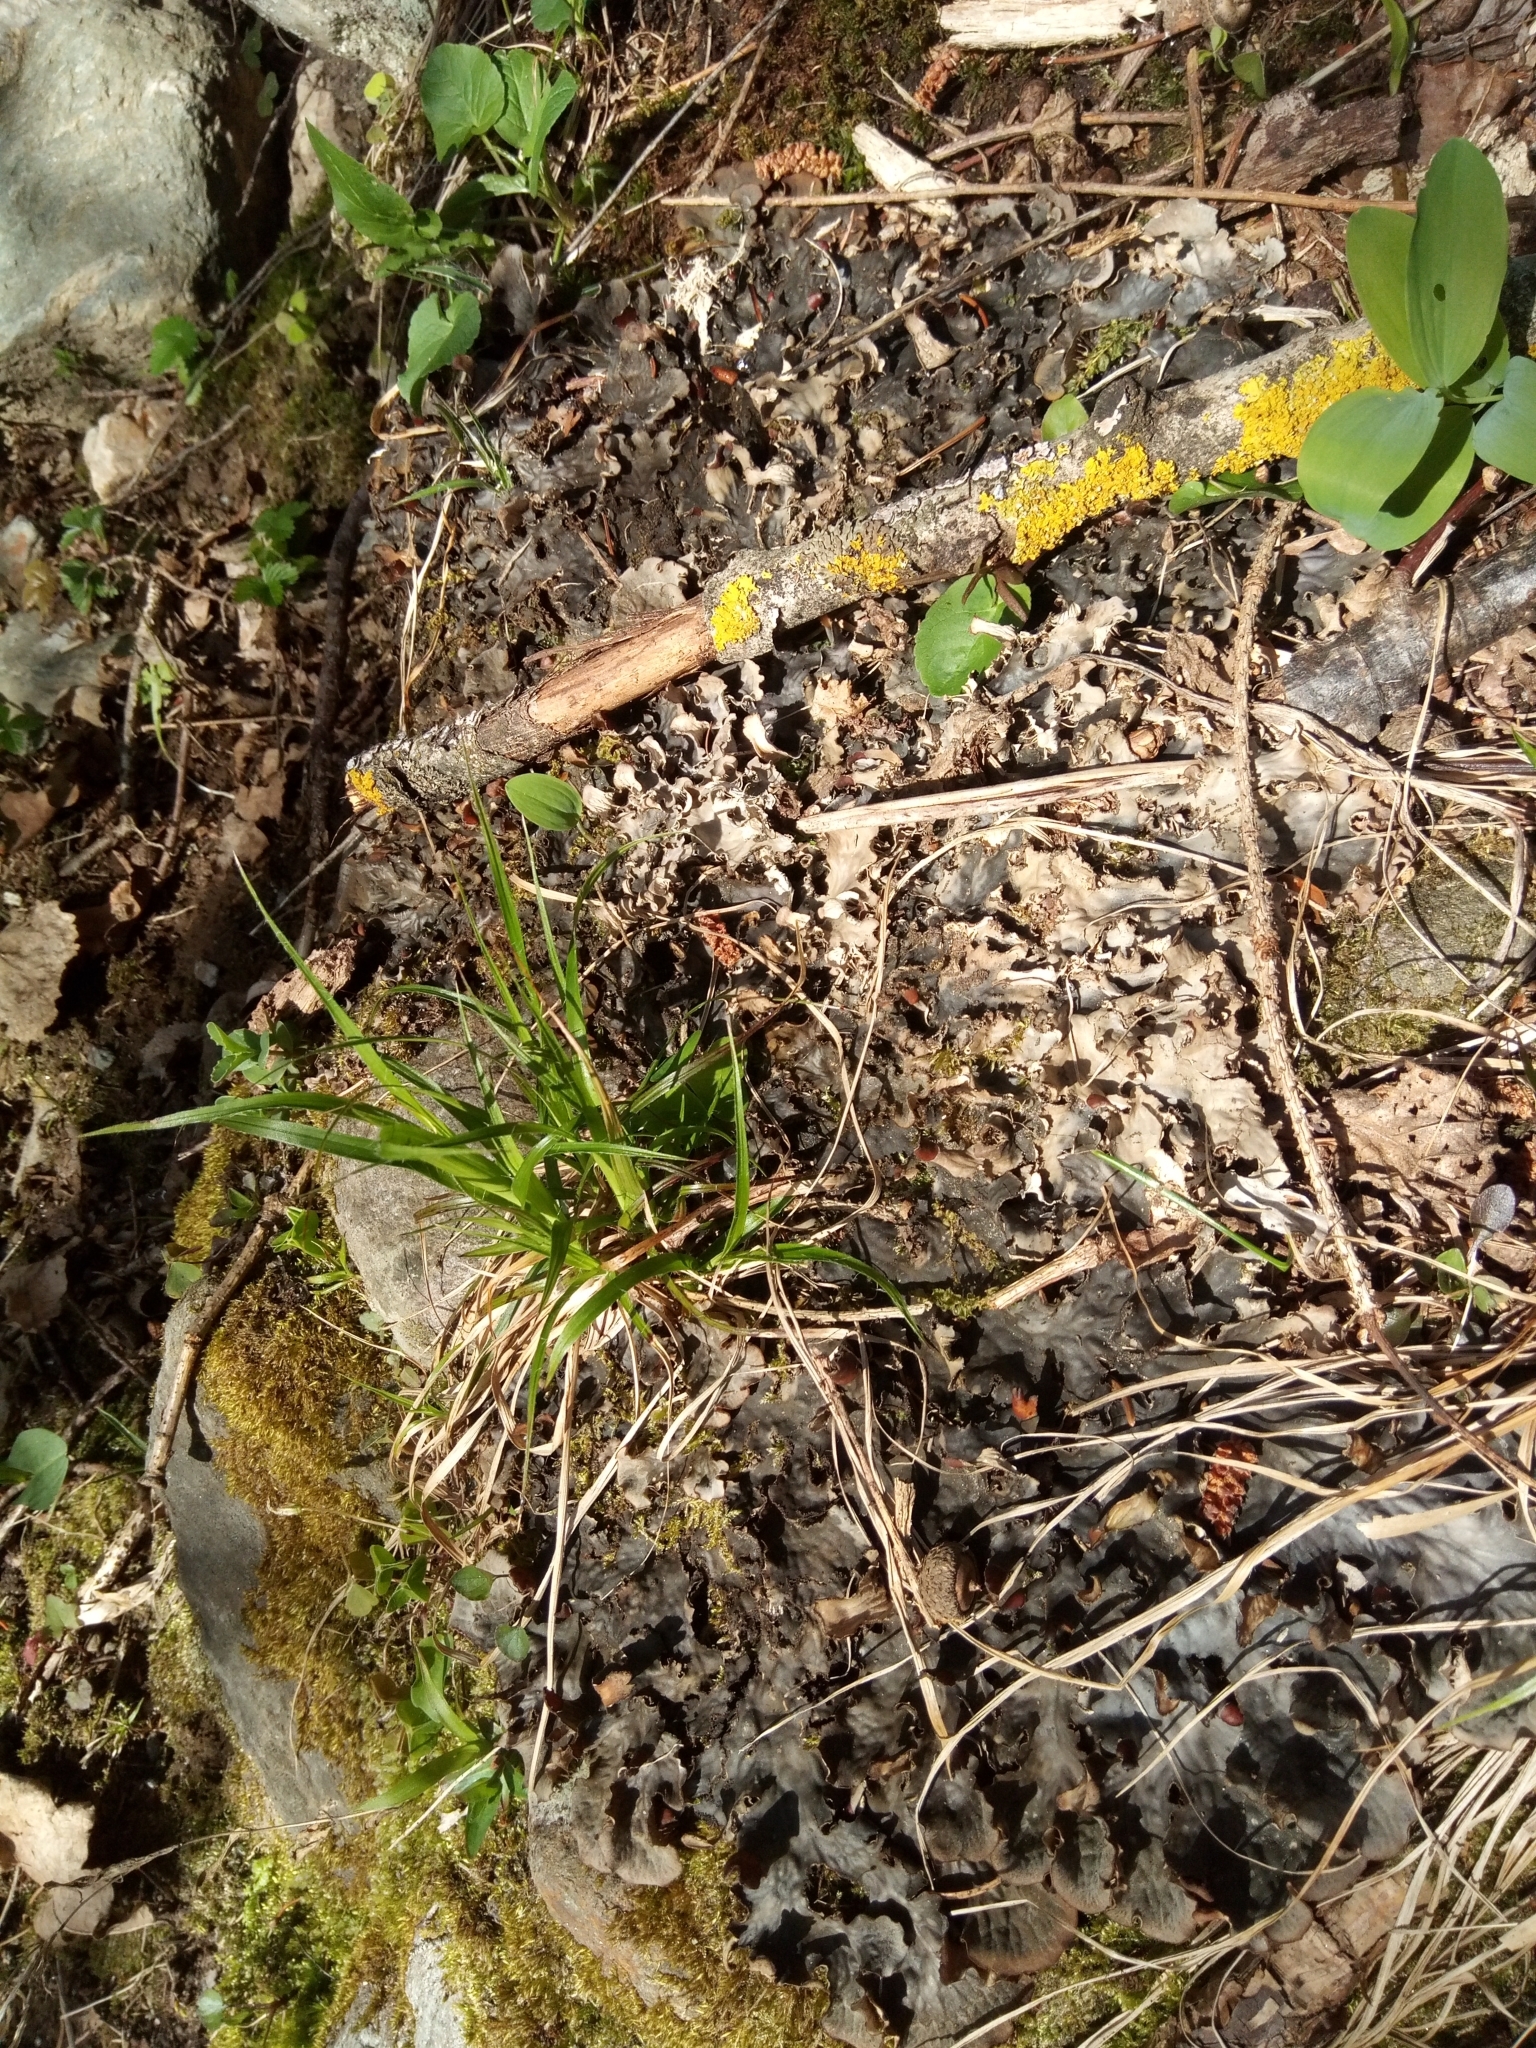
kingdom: Fungi
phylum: Ascomycota
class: Lecanoromycetes
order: Peltigerales
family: Peltigeraceae
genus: Peltigera
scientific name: Peltigera praetextata
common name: Scaly dog-lichen
